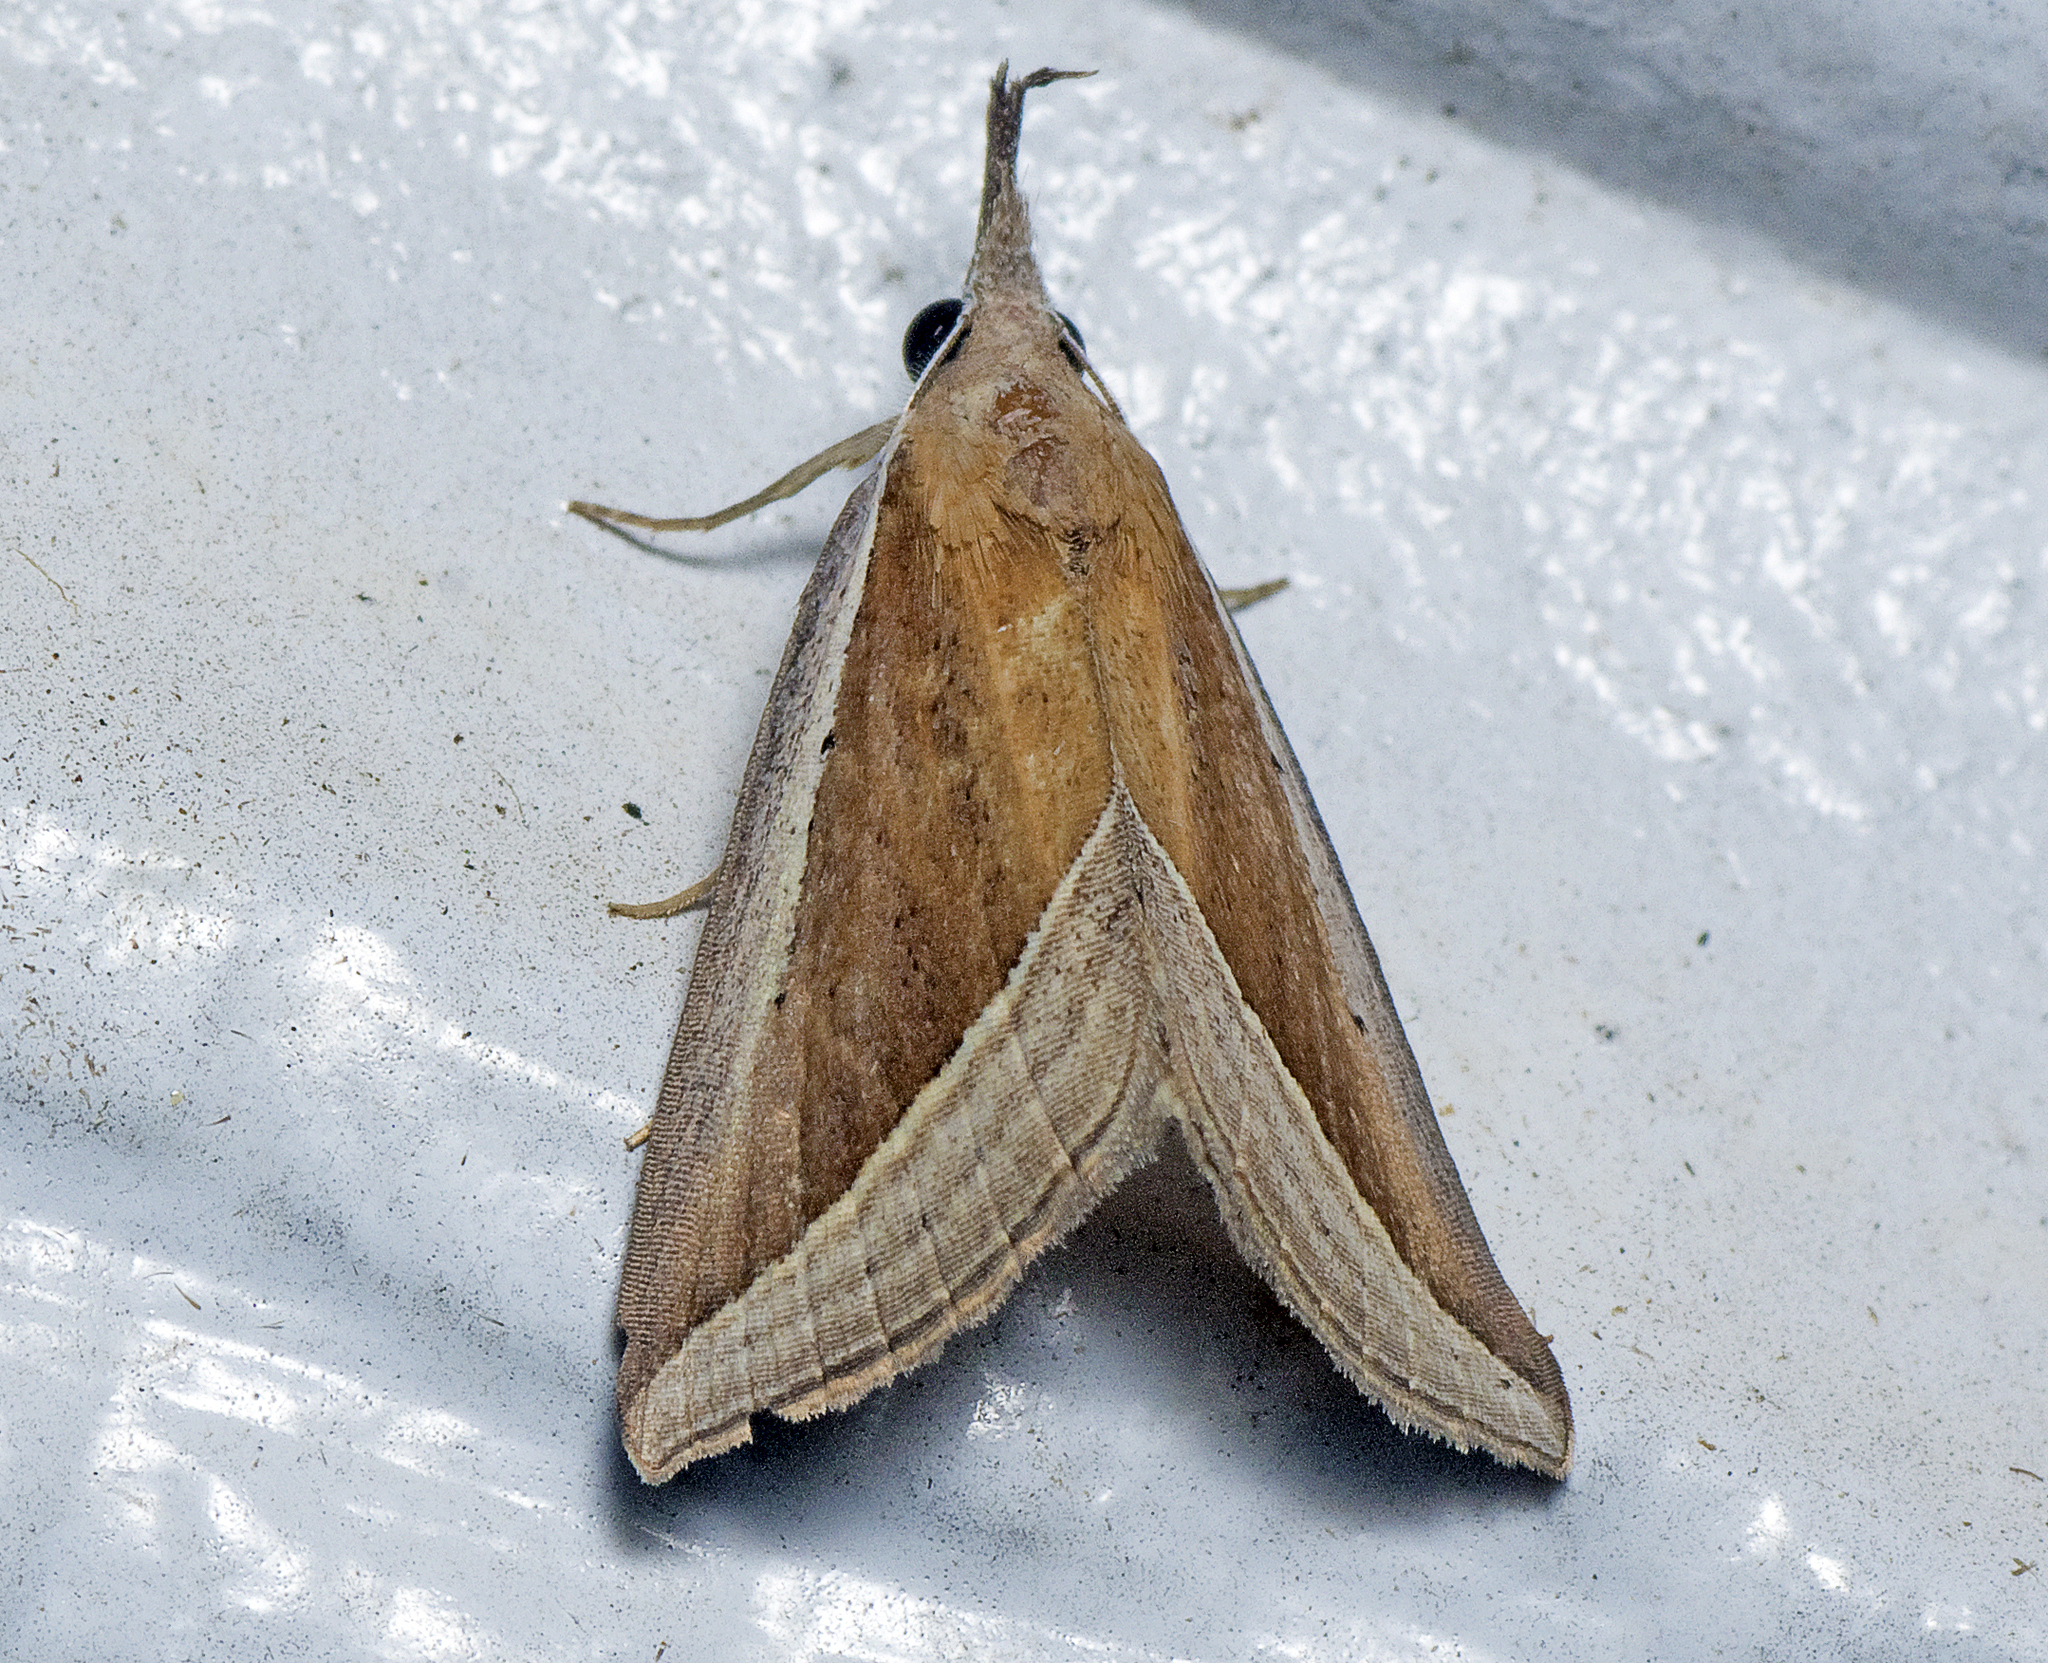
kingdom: Animalia
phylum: Arthropoda
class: Insecta
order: Lepidoptera
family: Erebidae
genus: Hypena
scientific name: Hypena conscitalis
